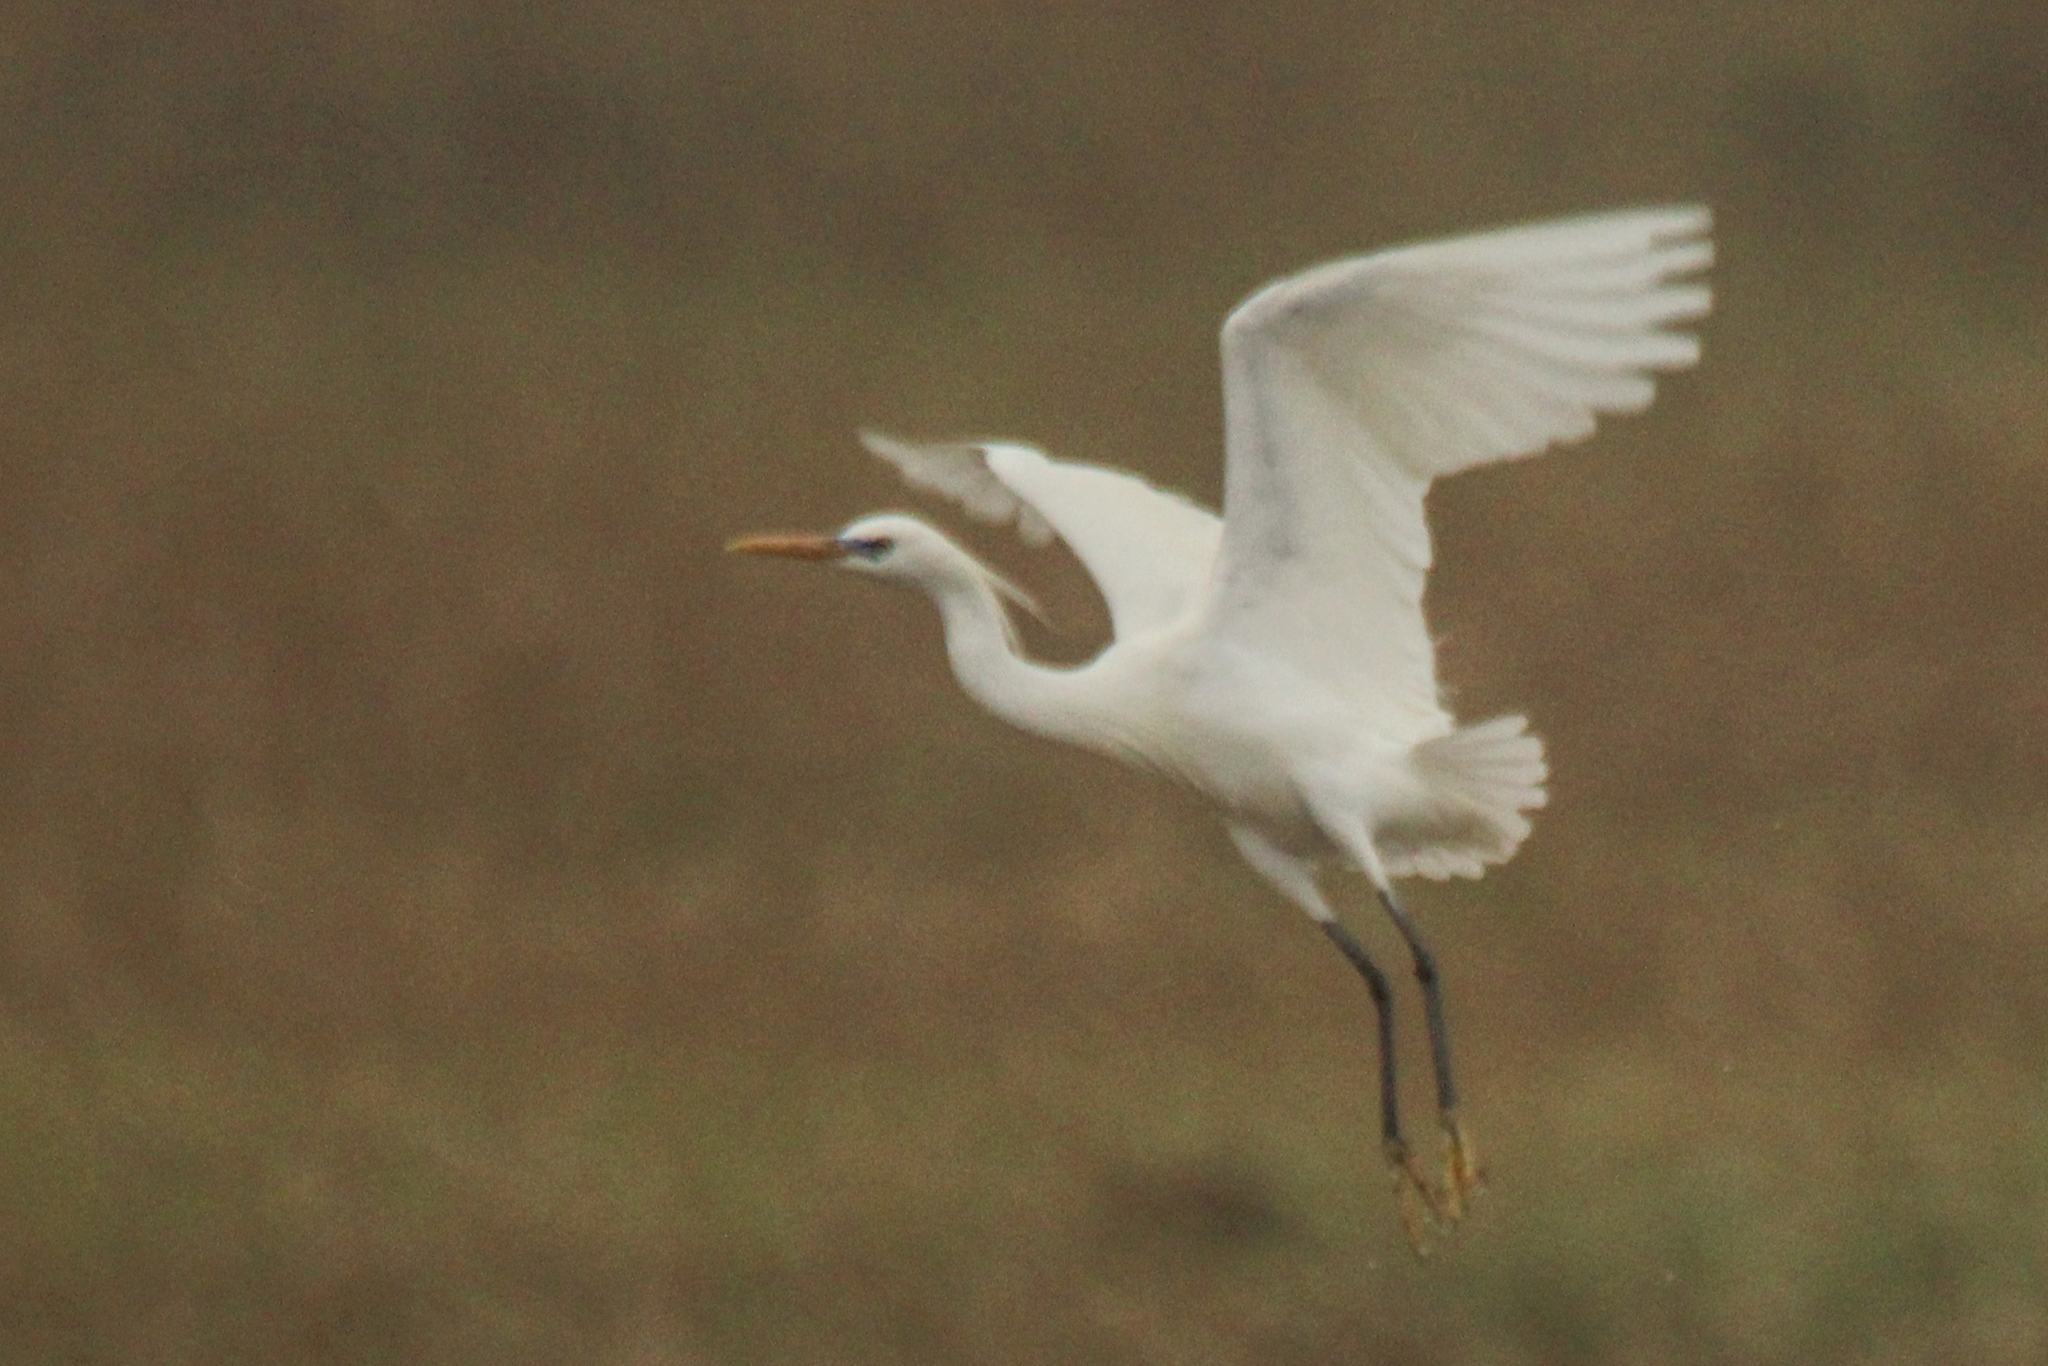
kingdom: Animalia
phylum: Chordata
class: Aves
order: Pelecaniformes
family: Ardeidae
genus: Egretta
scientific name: Egretta eulophotes
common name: Chinese egret
